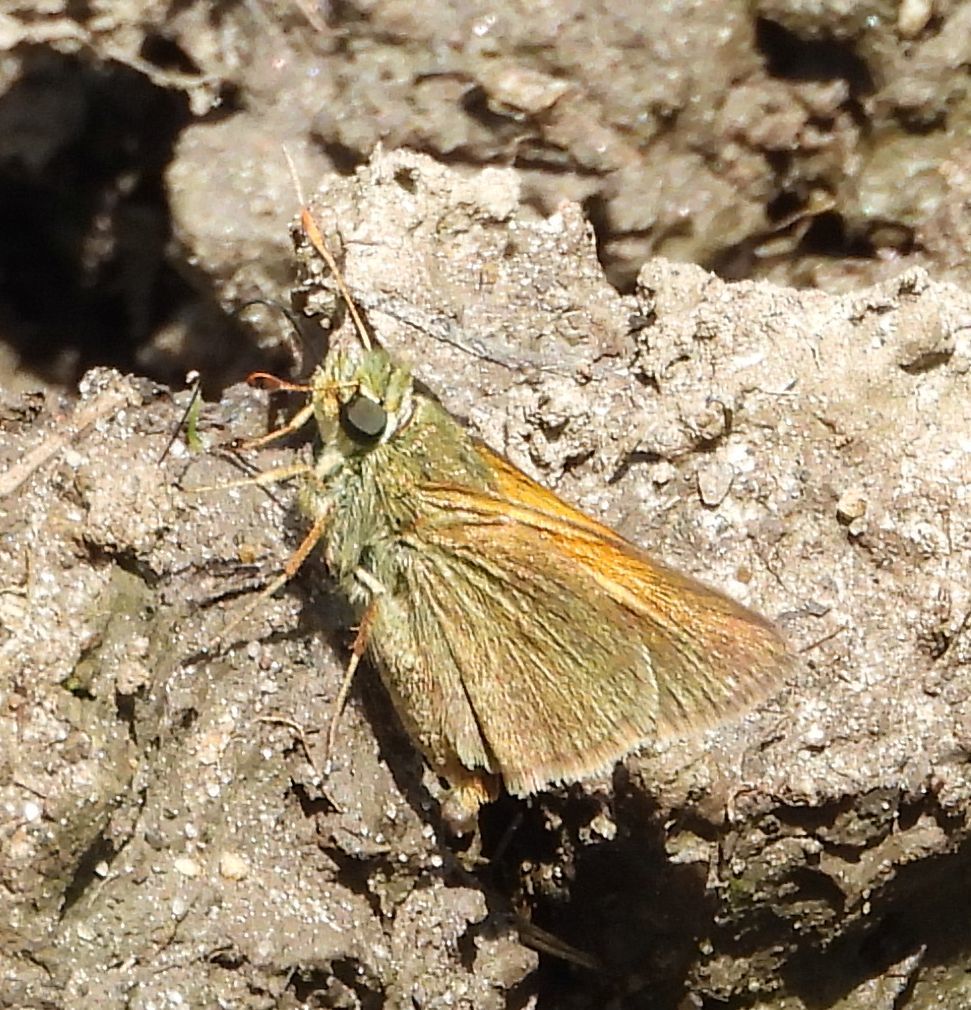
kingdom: Animalia
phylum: Arthropoda
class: Insecta
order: Lepidoptera
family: Hesperiidae
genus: Polites
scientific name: Polites themistocles
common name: Tawny-edged skipper
